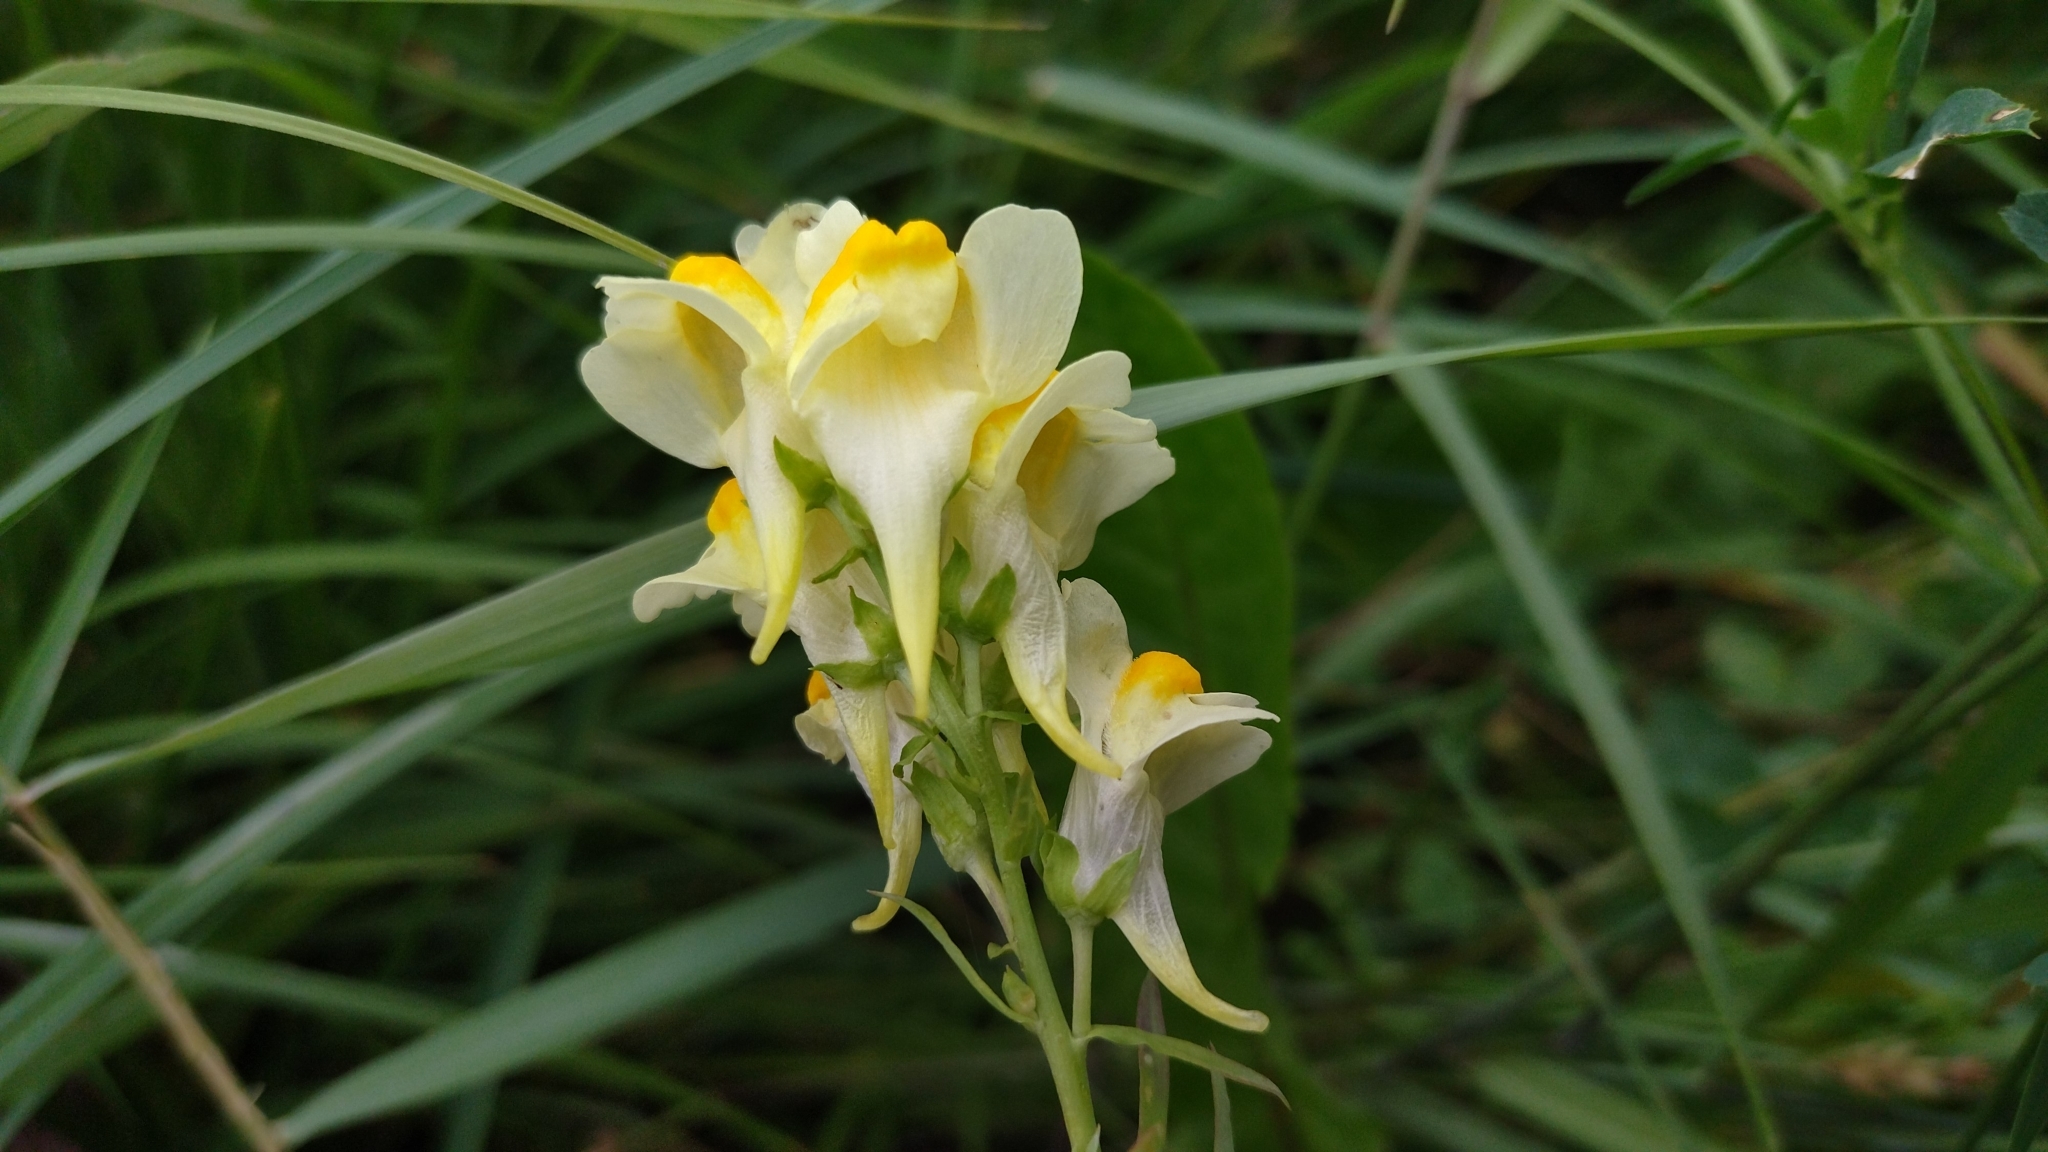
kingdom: Plantae
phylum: Tracheophyta
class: Magnoliopsida
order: Lamiales
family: Plantaginaceae
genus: Linaria
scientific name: Linaria vulgaris
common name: Butter and eggs
